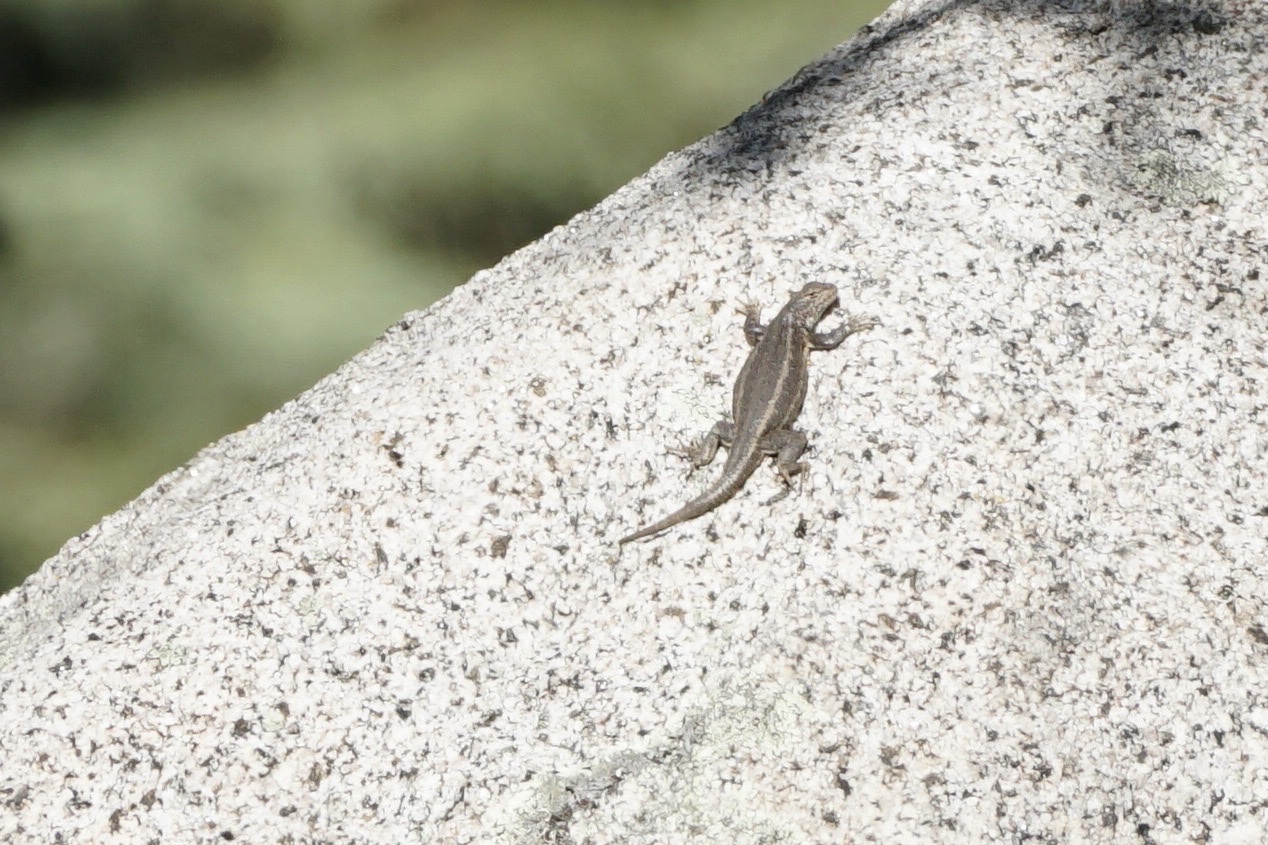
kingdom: Animalia
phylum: Chordata
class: Squamata
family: Phrynosomatidae
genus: Sceloporus
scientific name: Sceloporus graciosus
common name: Sagebrush lizard
